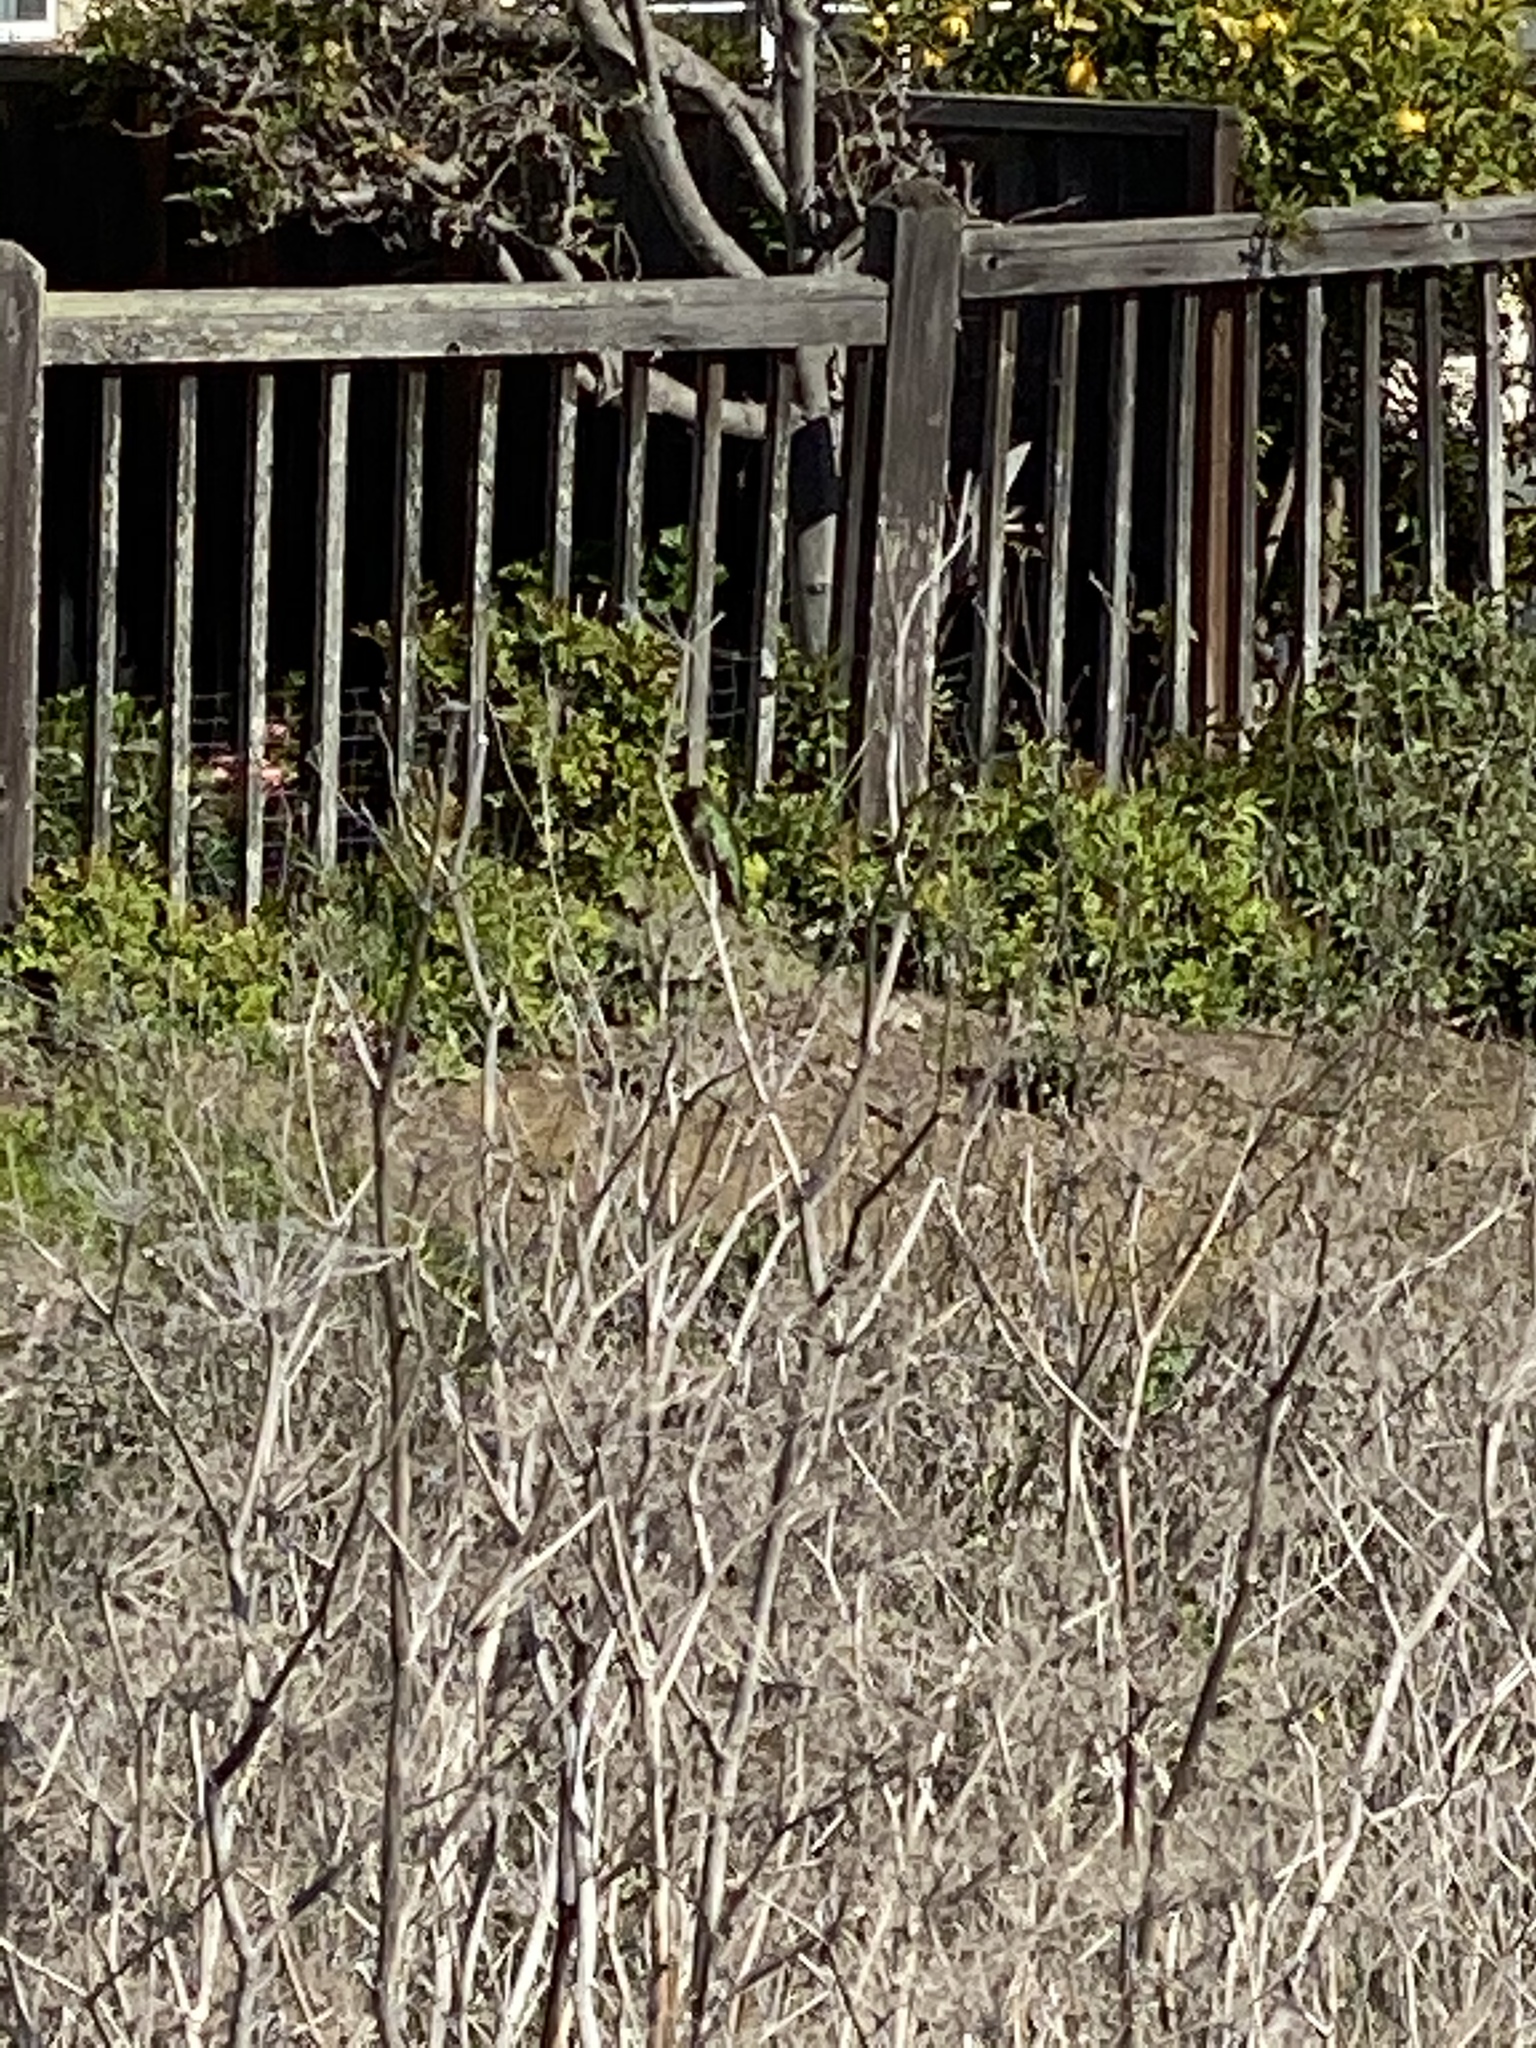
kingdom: Animalia
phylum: Chordata
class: Aves
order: Apodiformes
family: Trochilidae
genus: Calypte
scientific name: Calypte anna
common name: Anna's hummingbird
